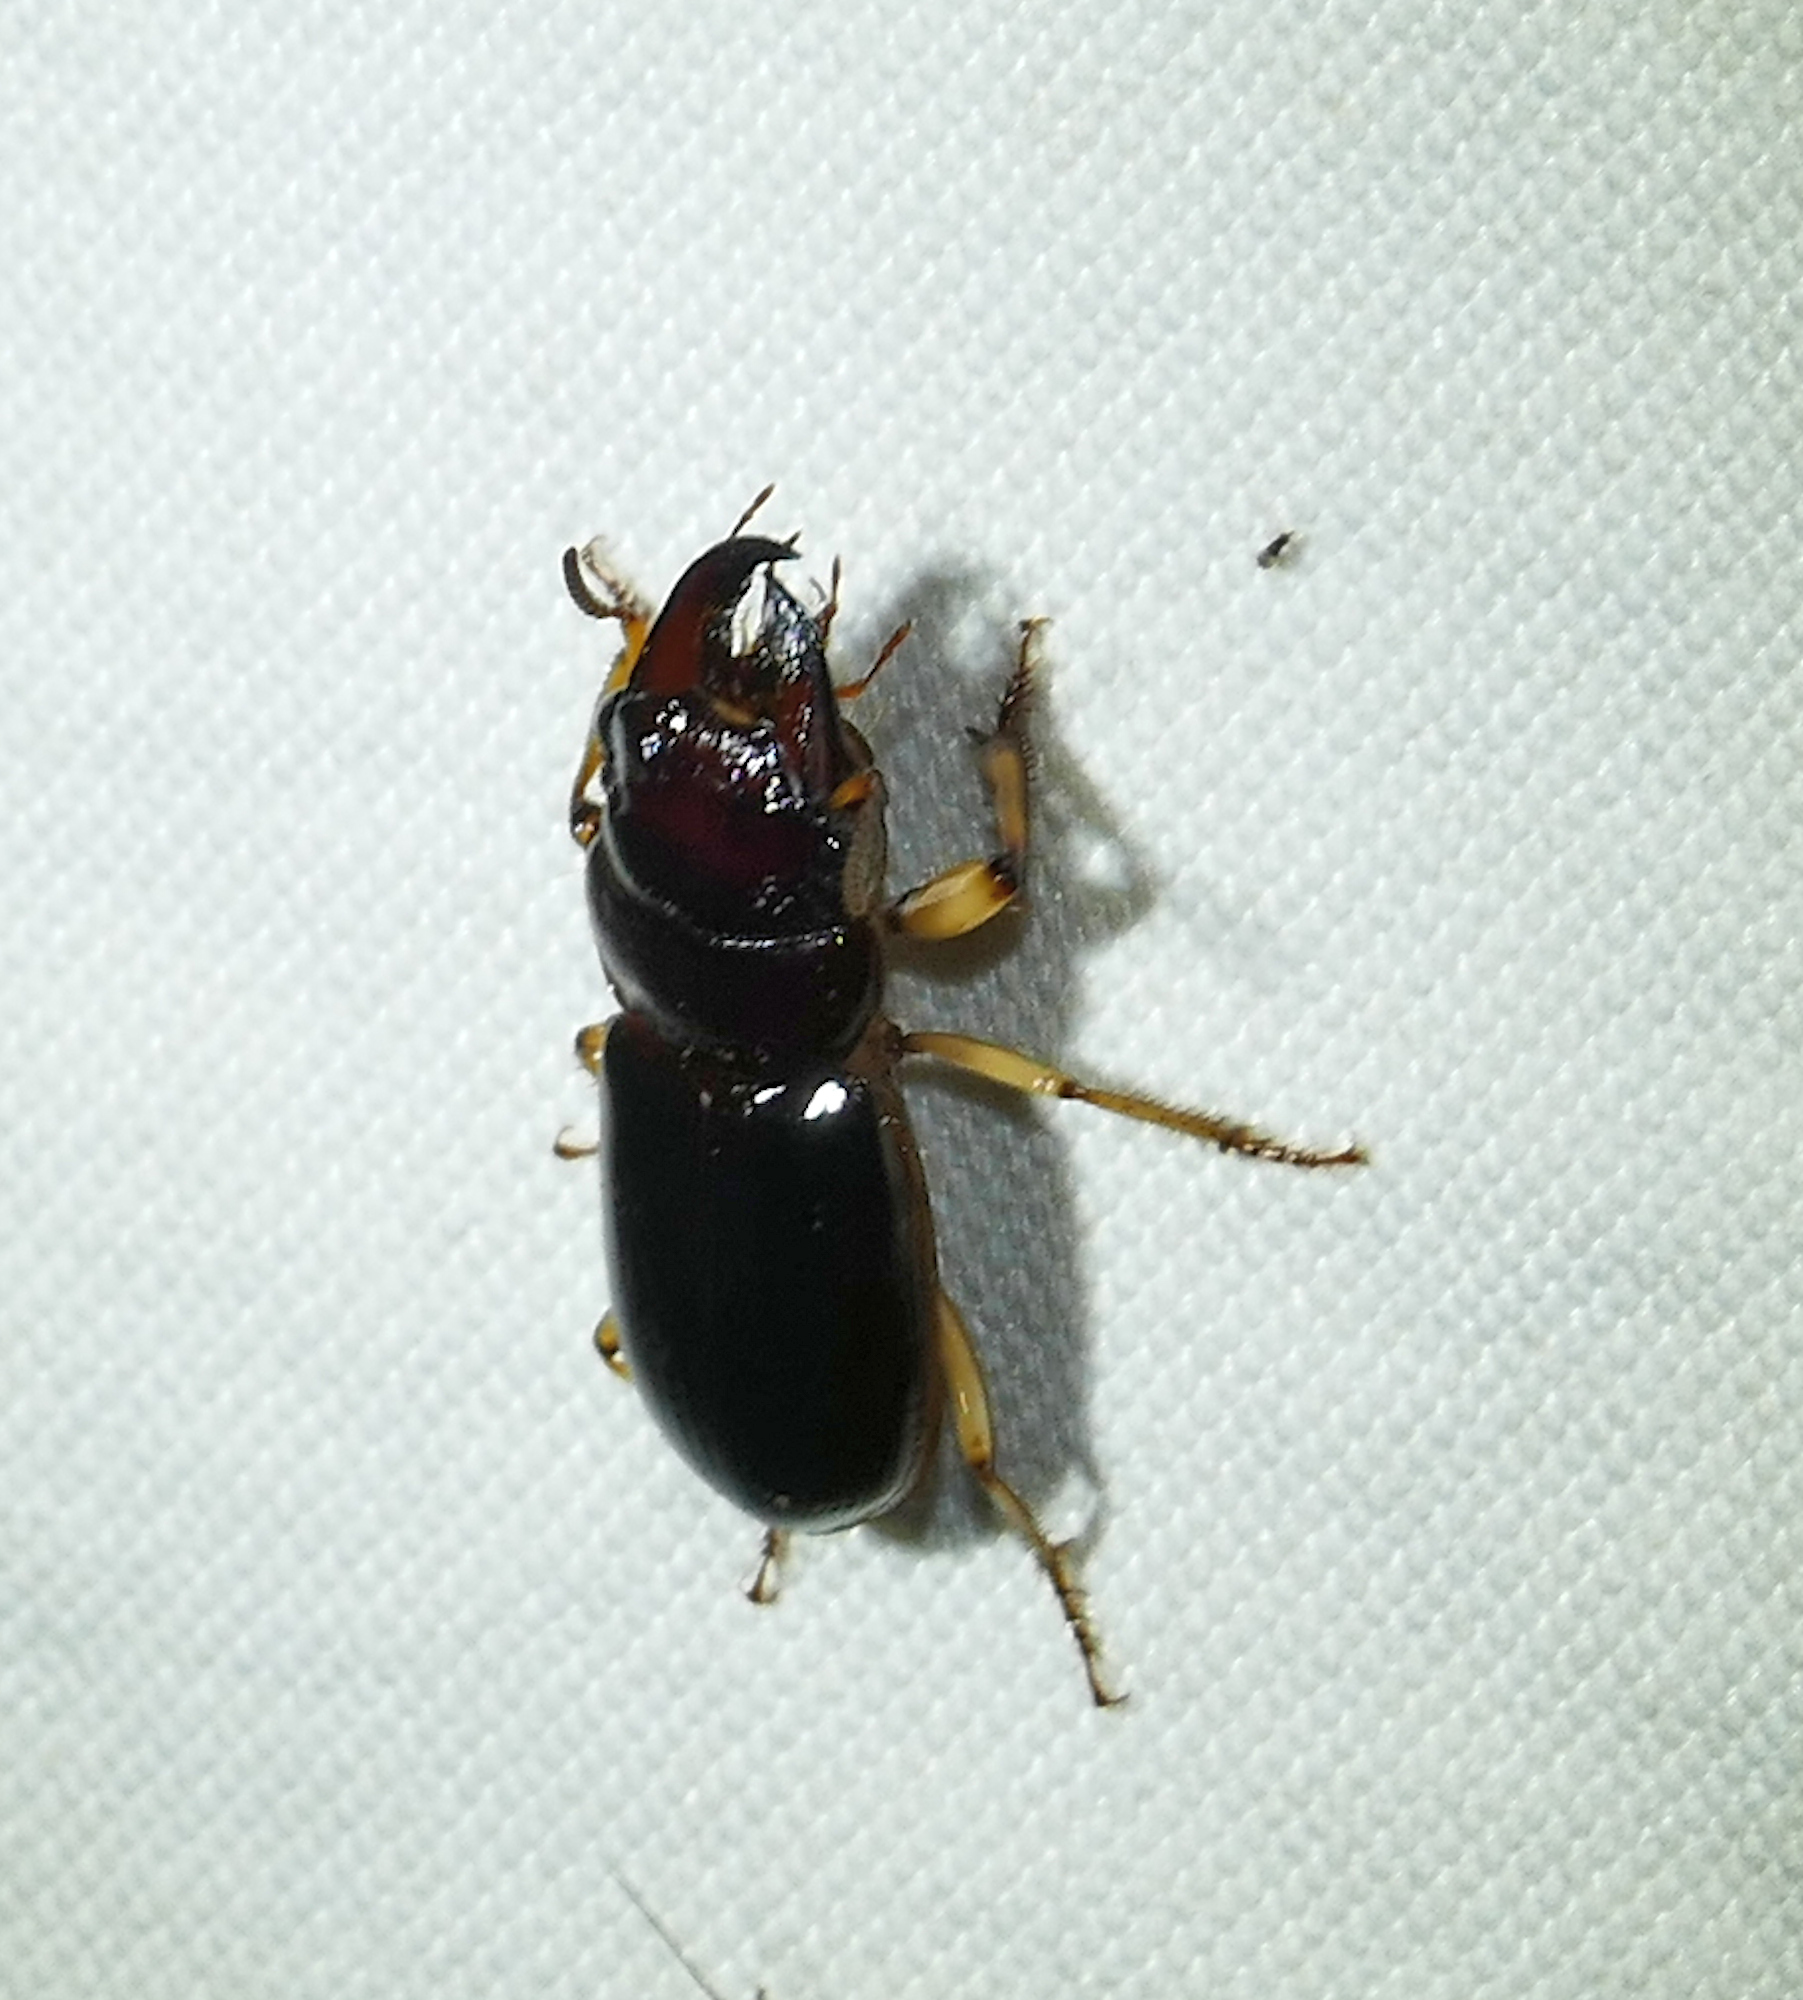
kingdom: Animalia
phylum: Arthropoda
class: Insecta
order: Coleoptera
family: Carabidae
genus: Polpochila
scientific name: Polpochila erro
